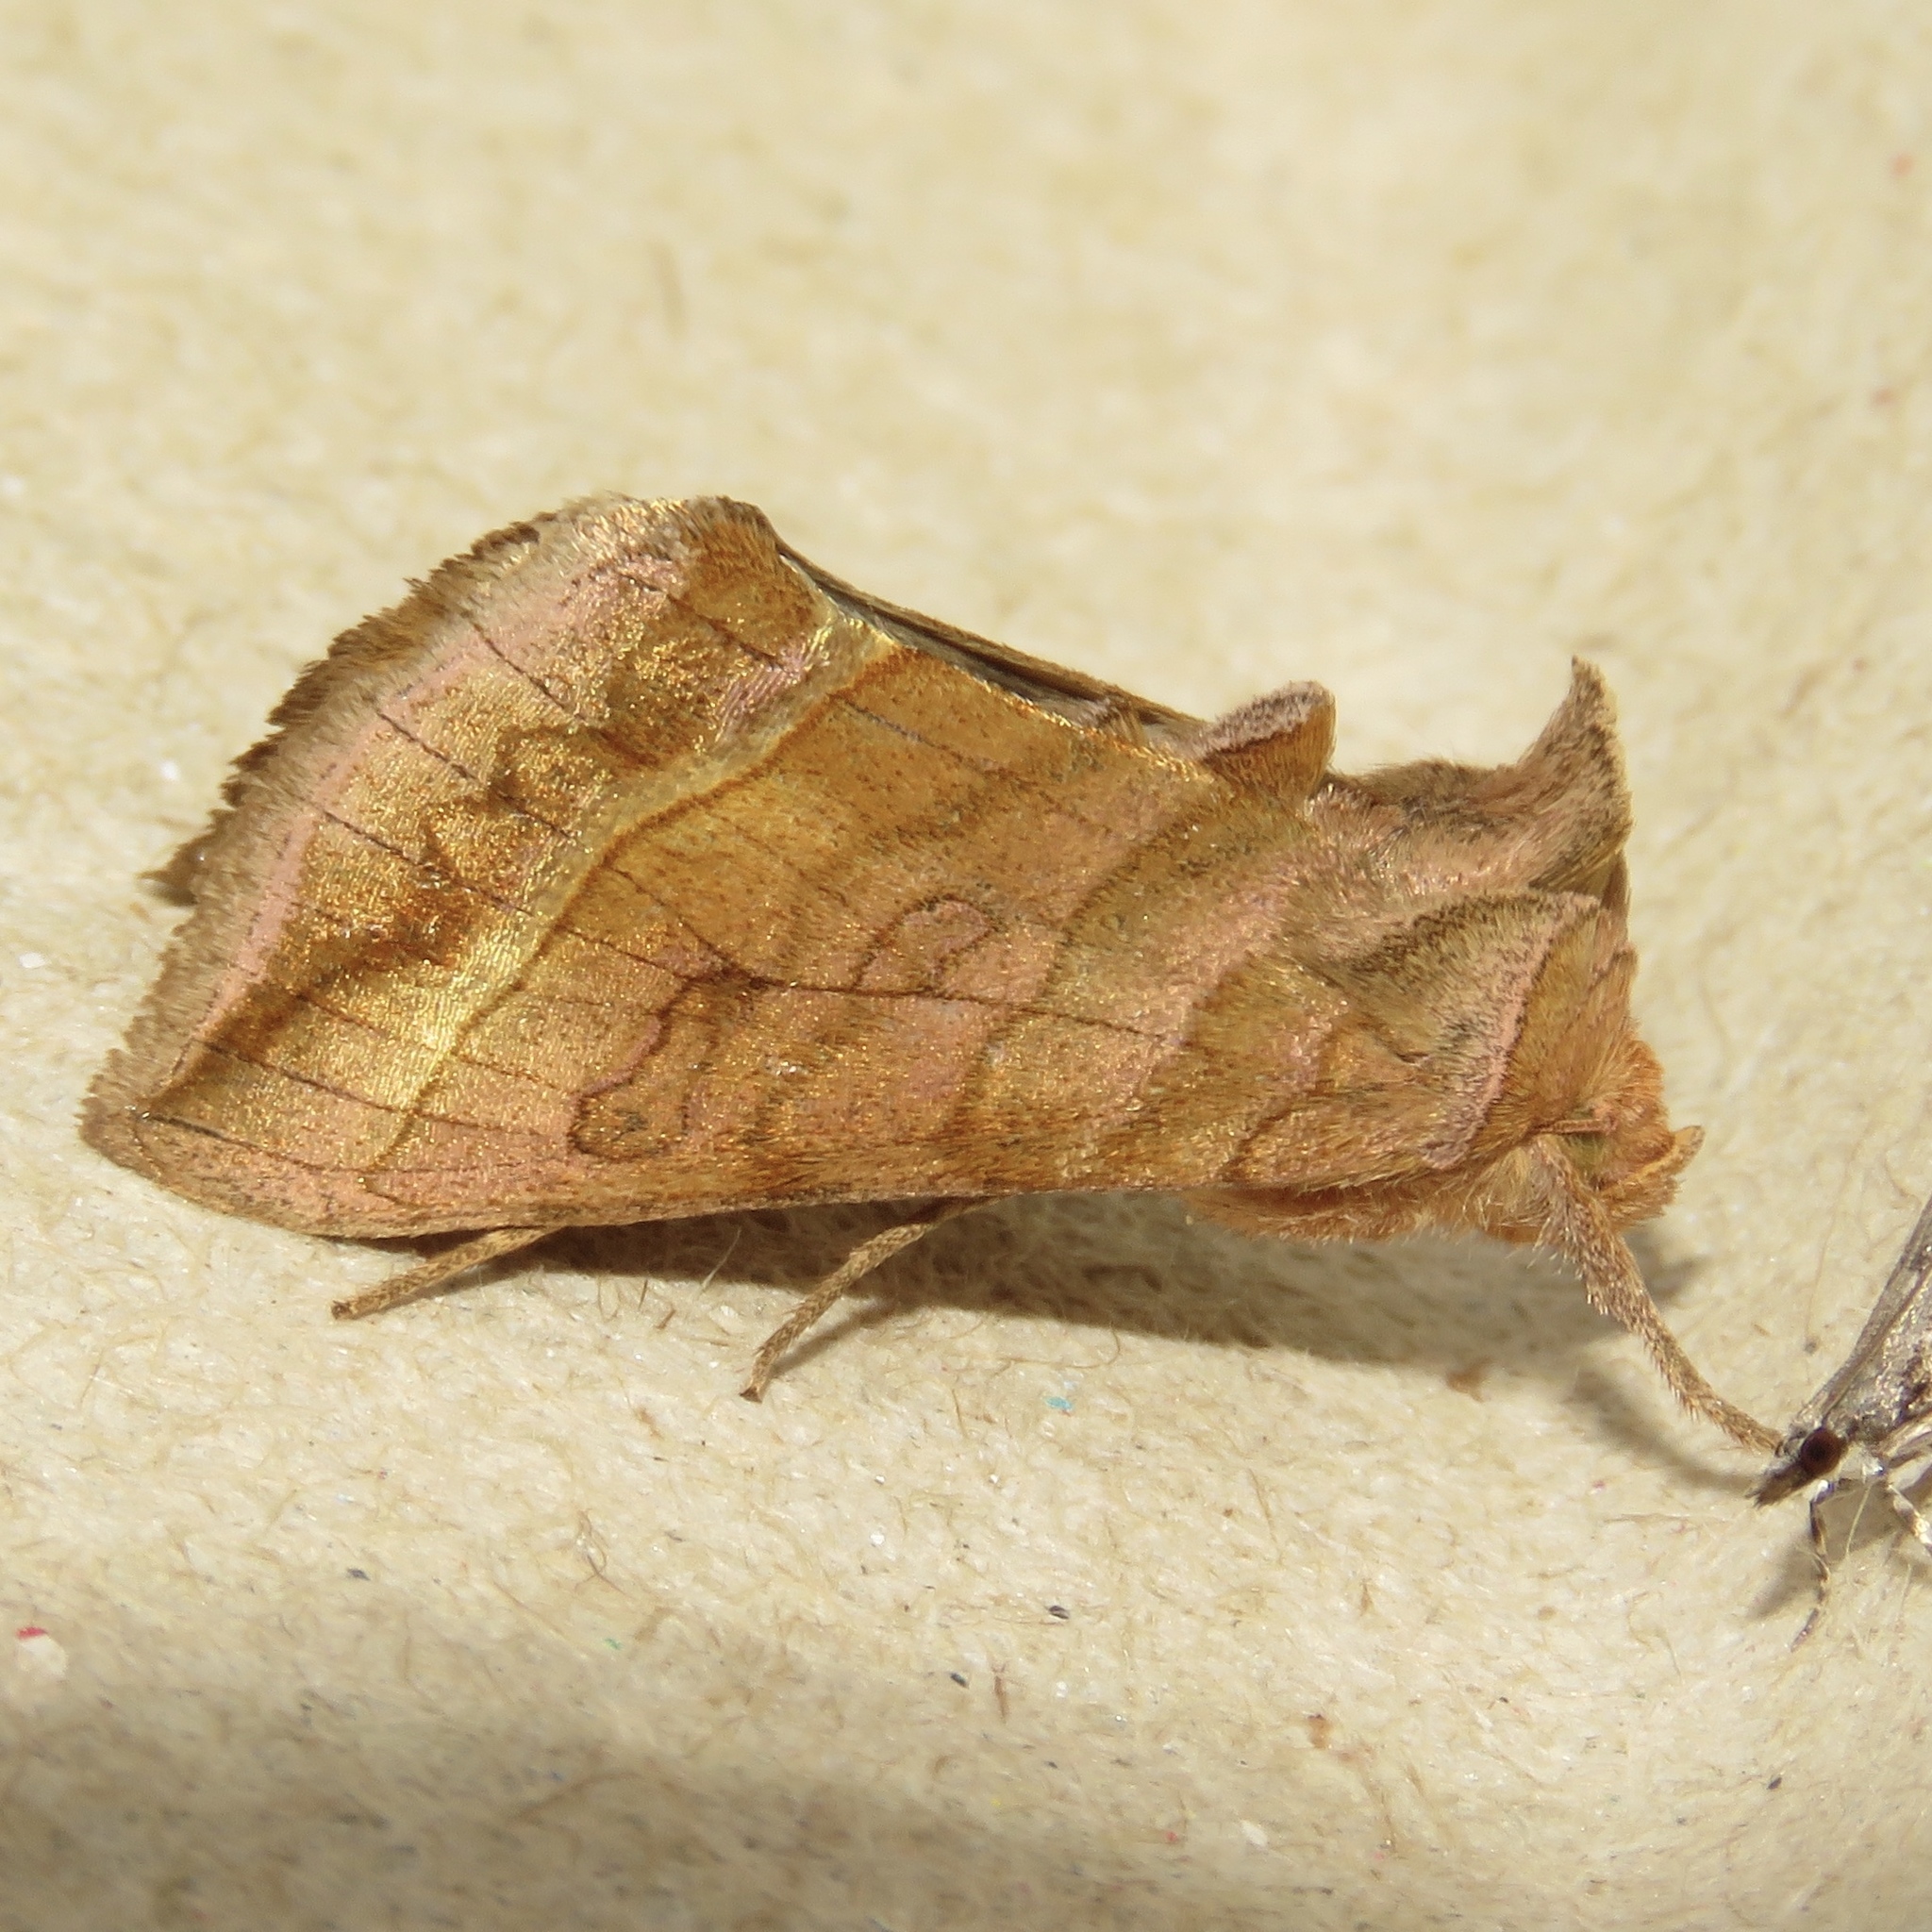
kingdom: Animalia
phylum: Arthropoda
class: Insecta
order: Lepidoptera
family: Noctuidae
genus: Diachrysia
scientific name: Diachrysia aereoides
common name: Dark-spotted looper moth
